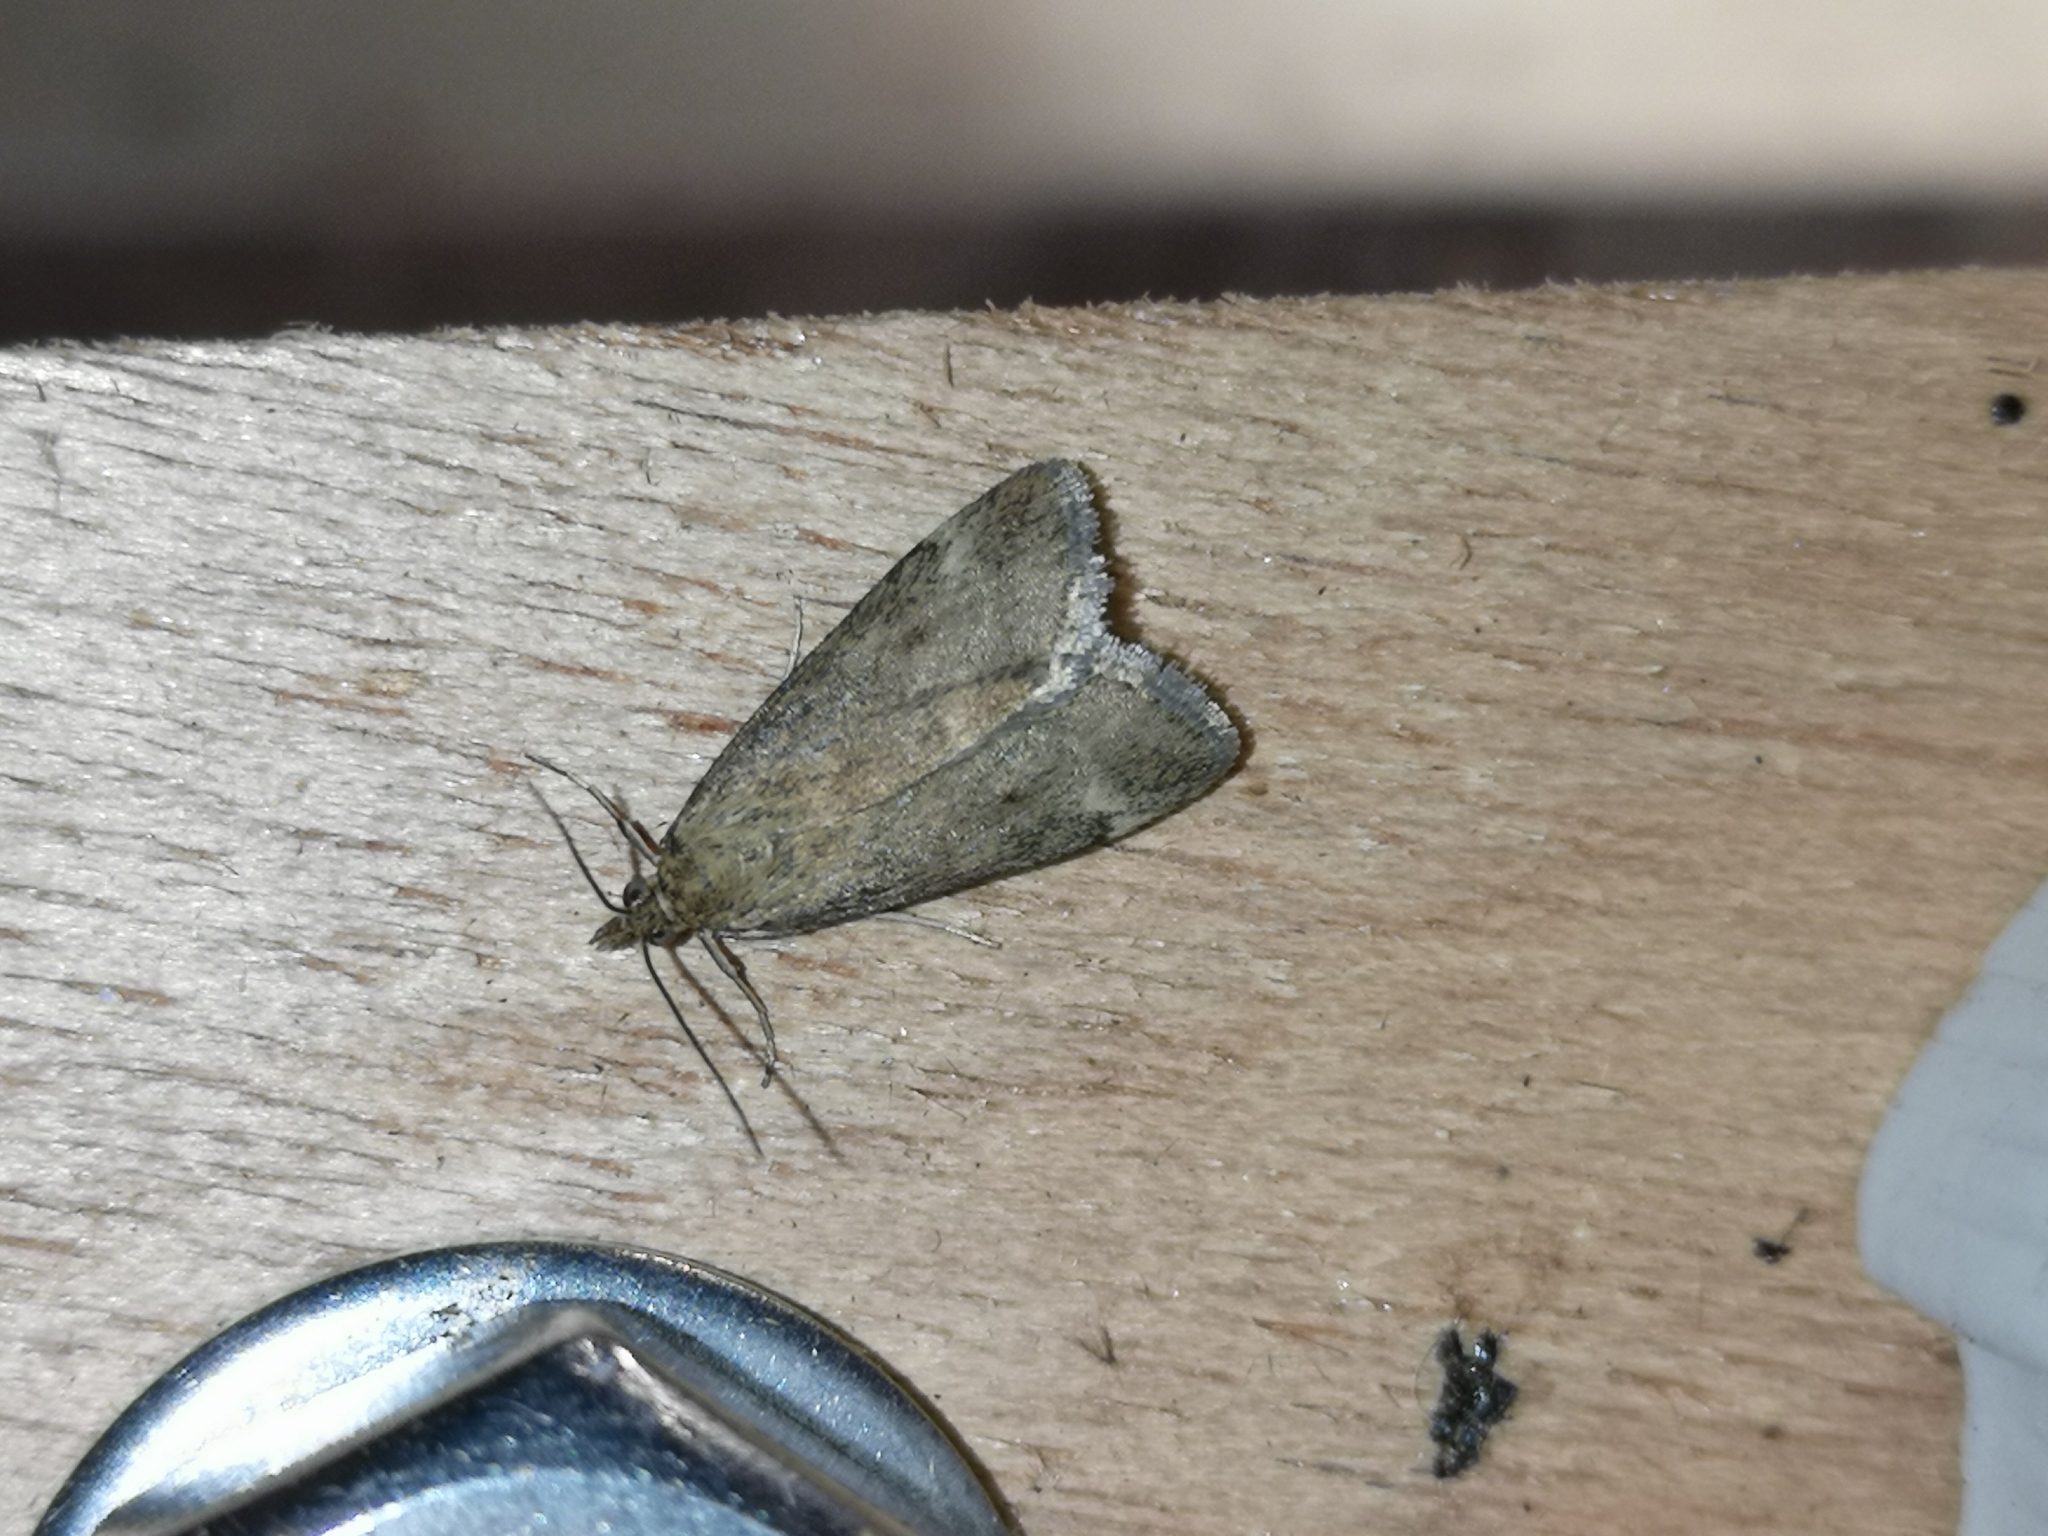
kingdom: Animalia
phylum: Arthropoda
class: Insecta
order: Lepidoptera
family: Crambidae
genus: Pyrausta
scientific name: Pyrausta despicata
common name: Straw-barred pearl
